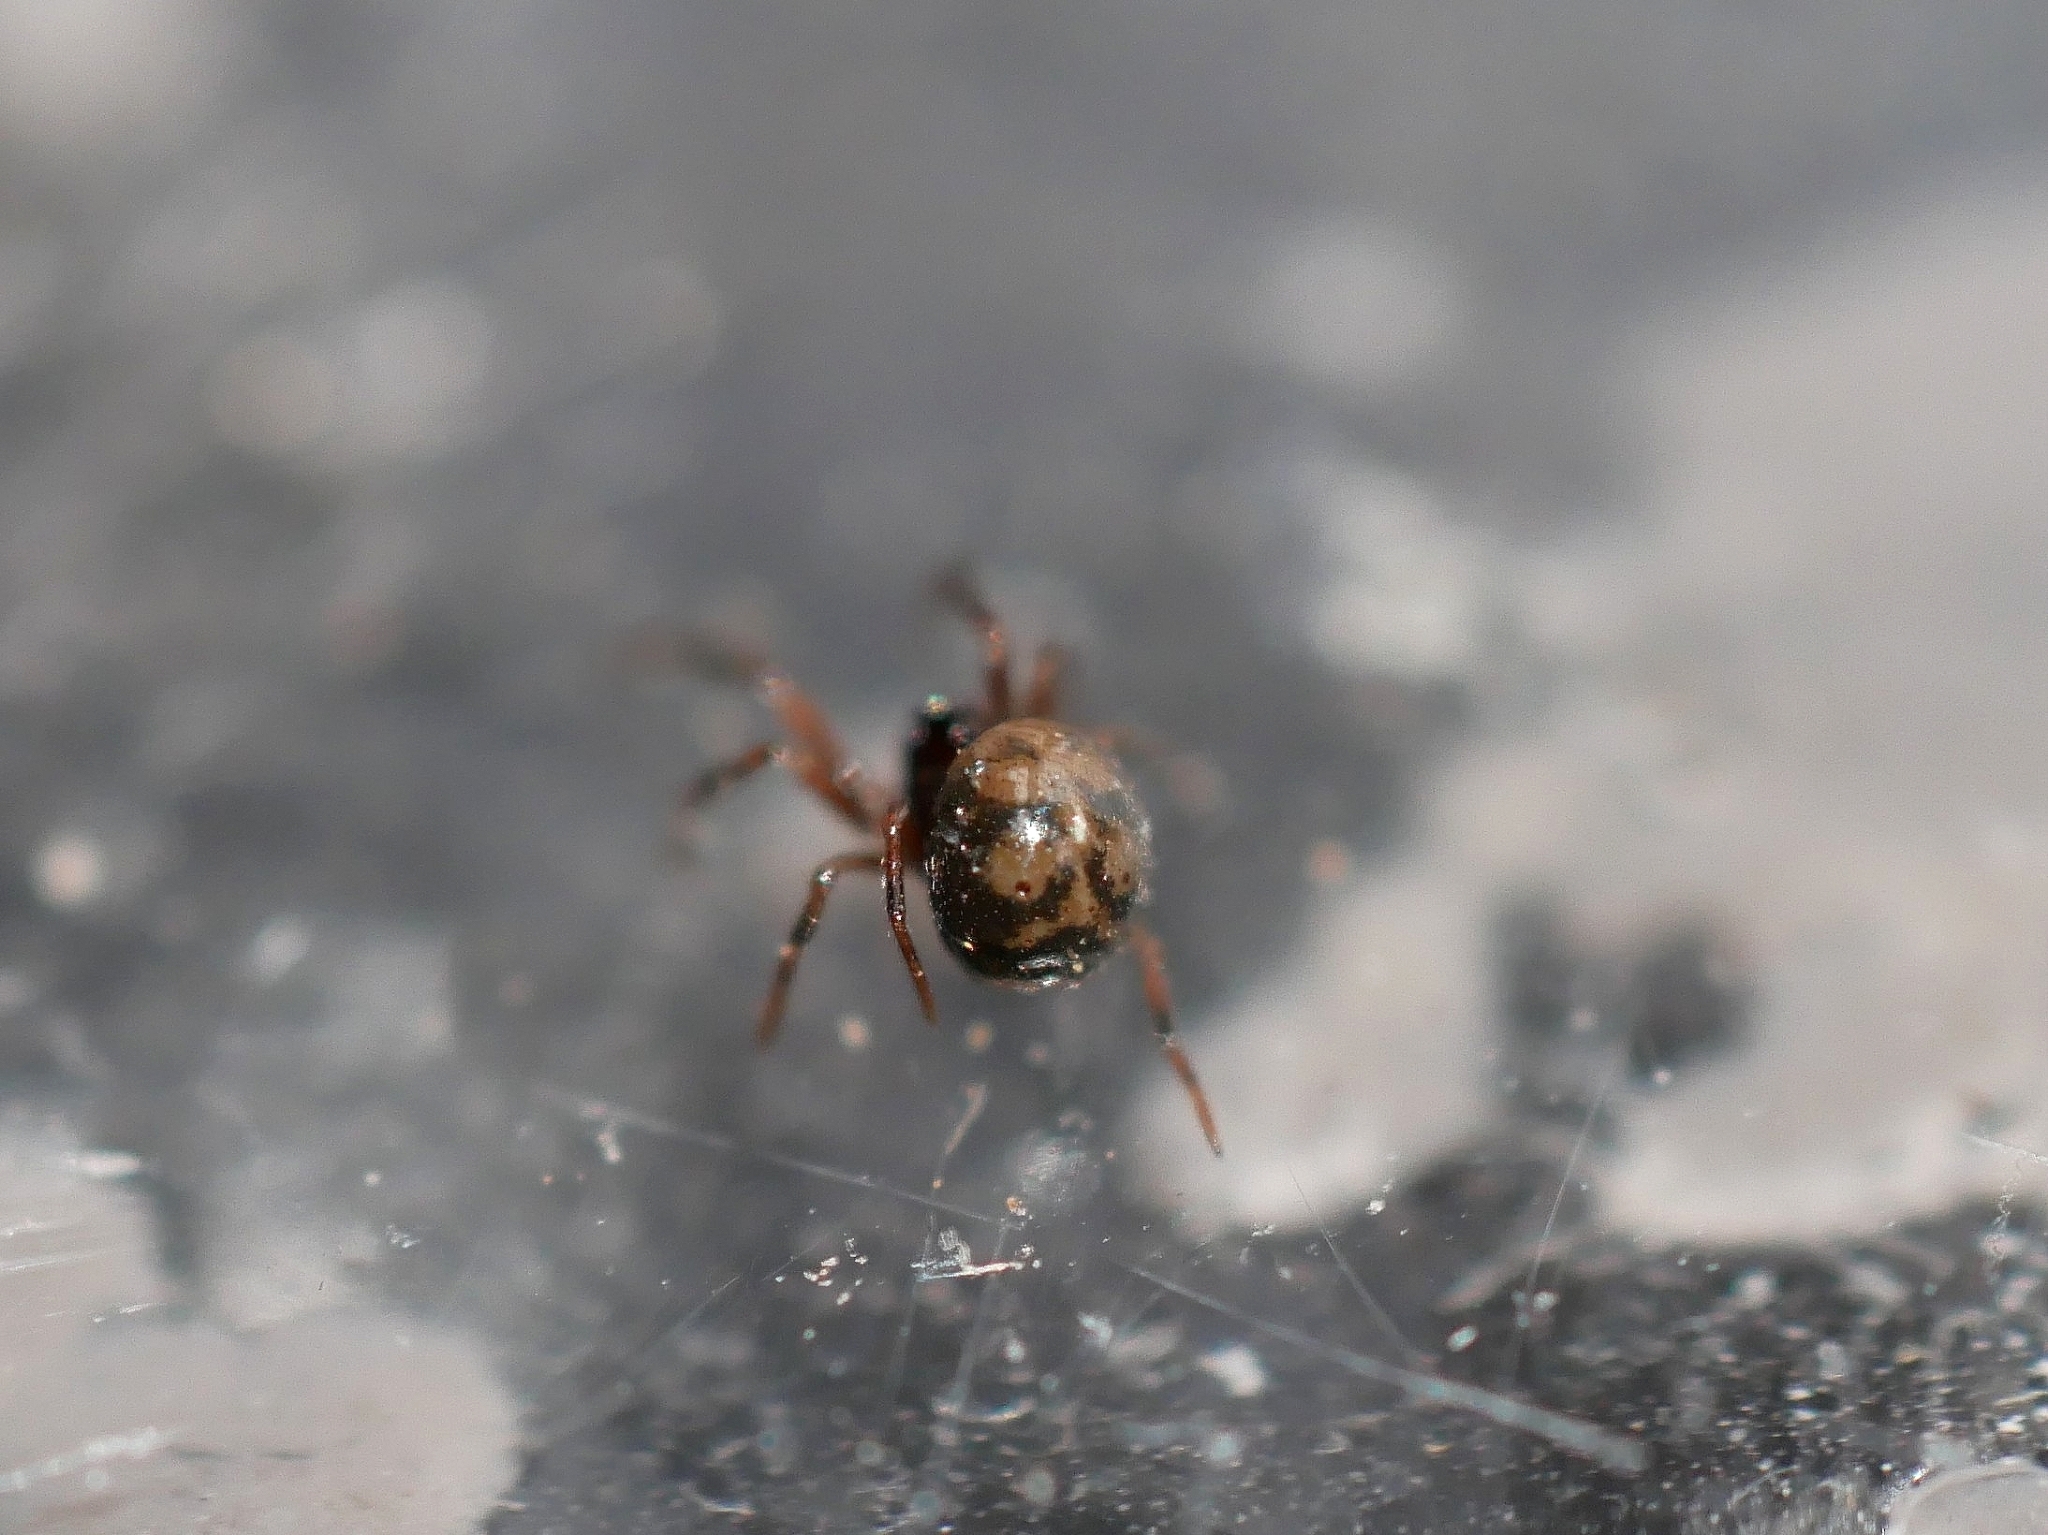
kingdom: Animalia
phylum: Arthropoda
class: Arachnida
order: Araneae
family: Anapidae
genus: Gertschanapis
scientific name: Gertschanapis shantzi
